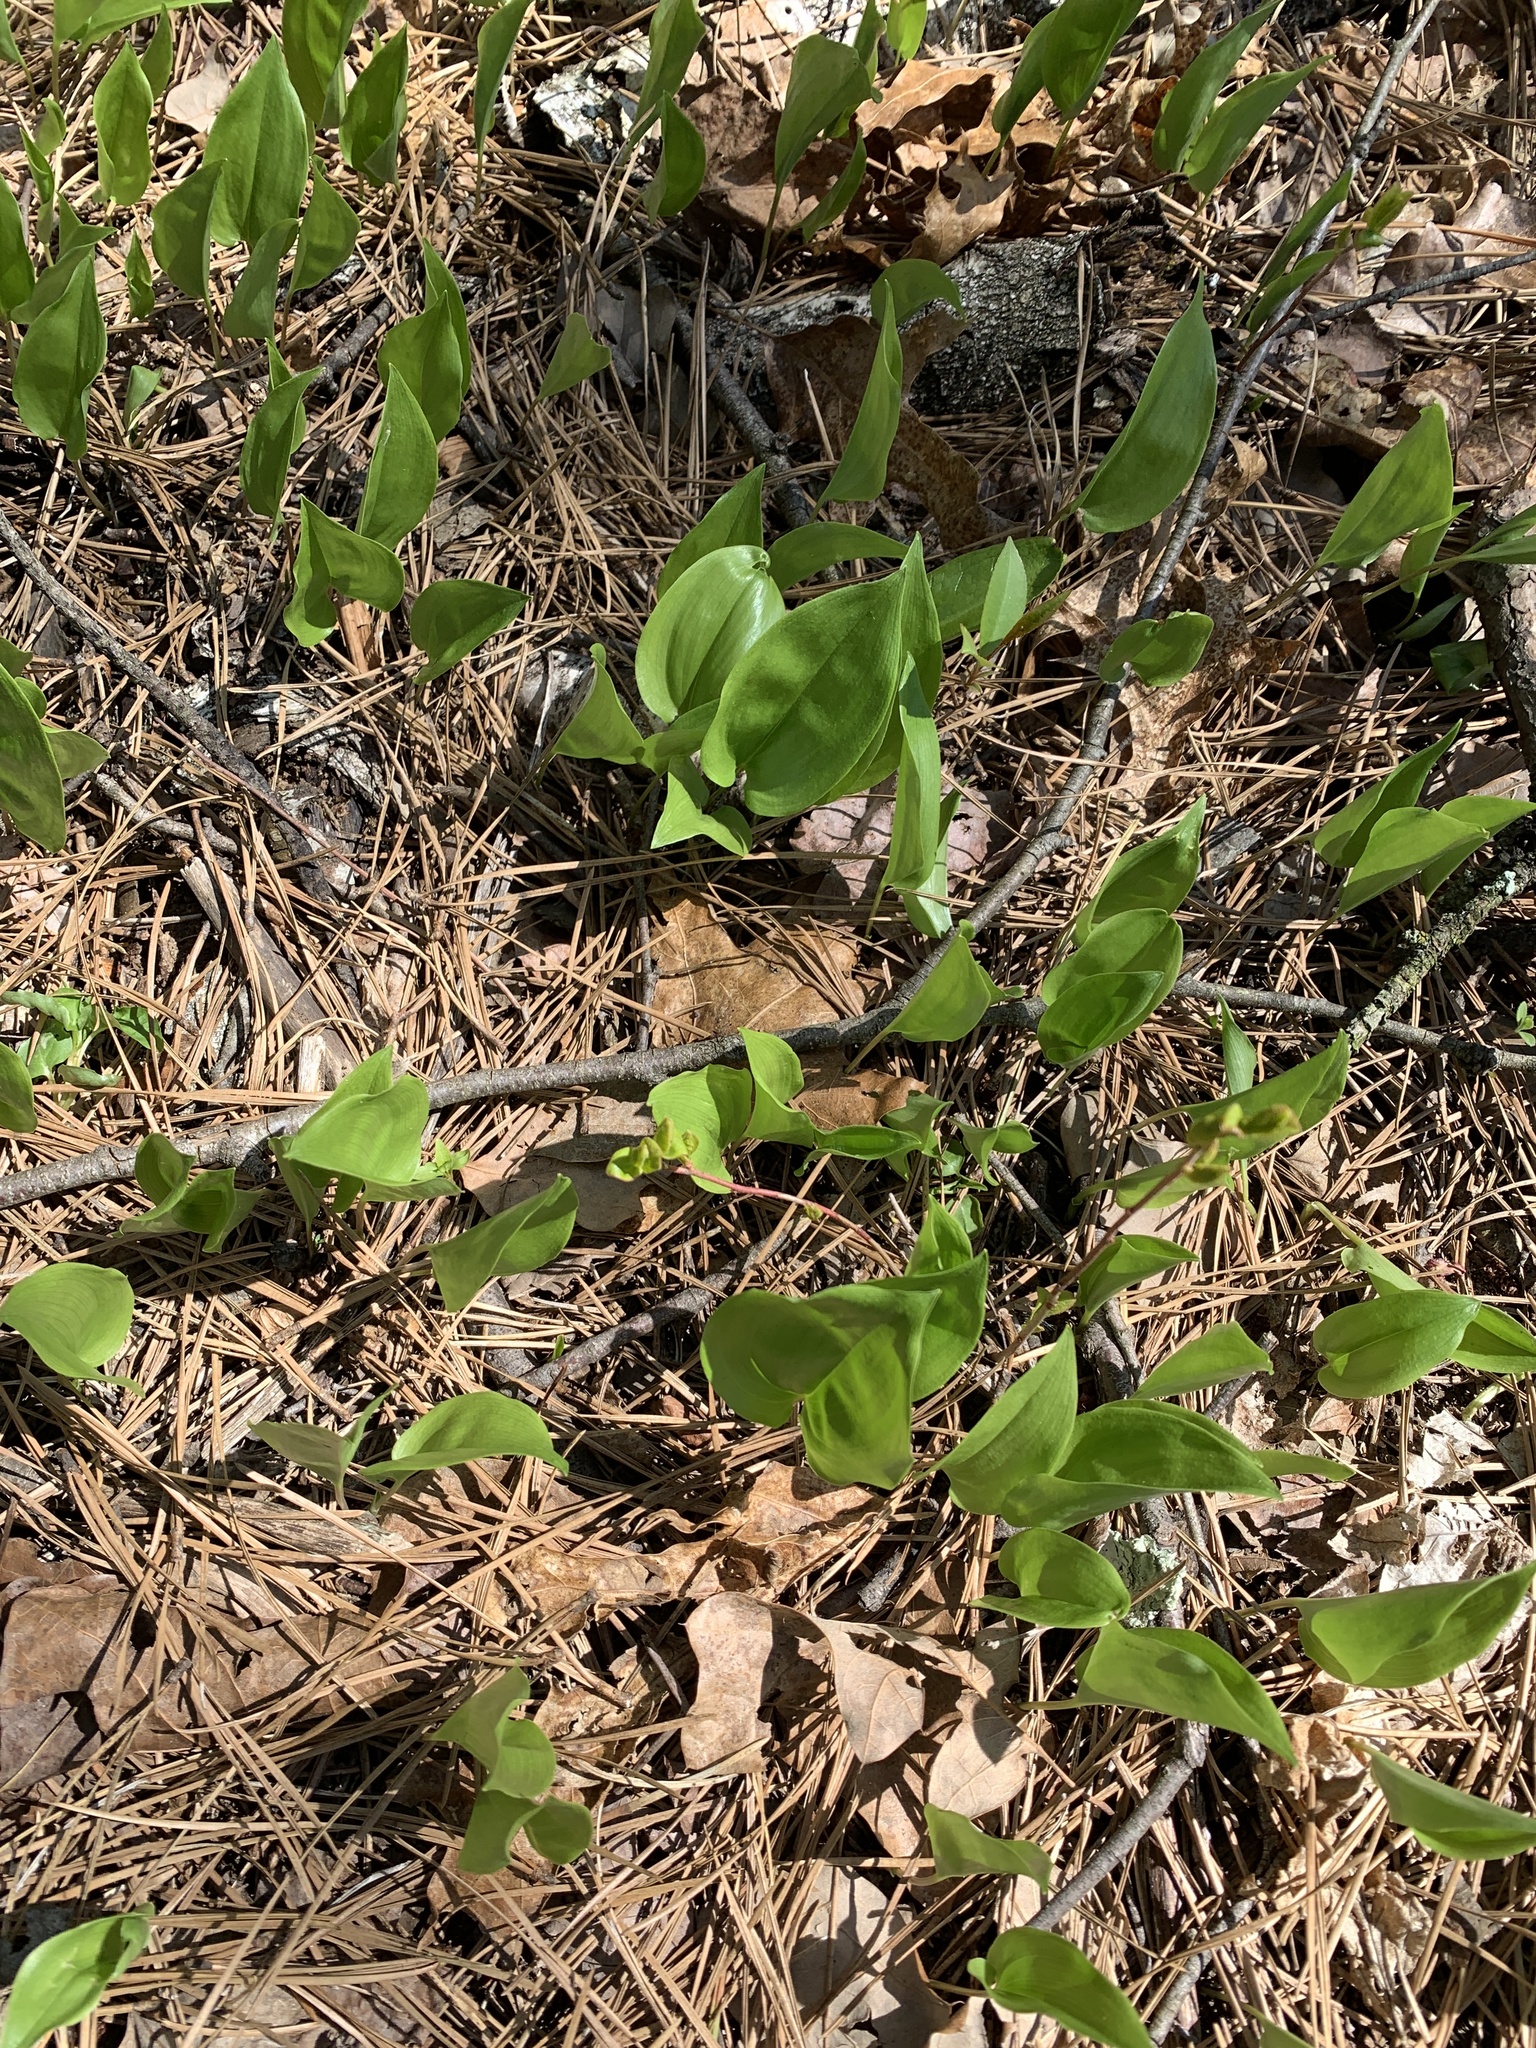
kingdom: Plantae
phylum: Tracheophyta
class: Liliopsida
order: Asparagales
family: Asparagaceae
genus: Maianthemum
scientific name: Maianthemum canadense
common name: False lily-of-the-valley
